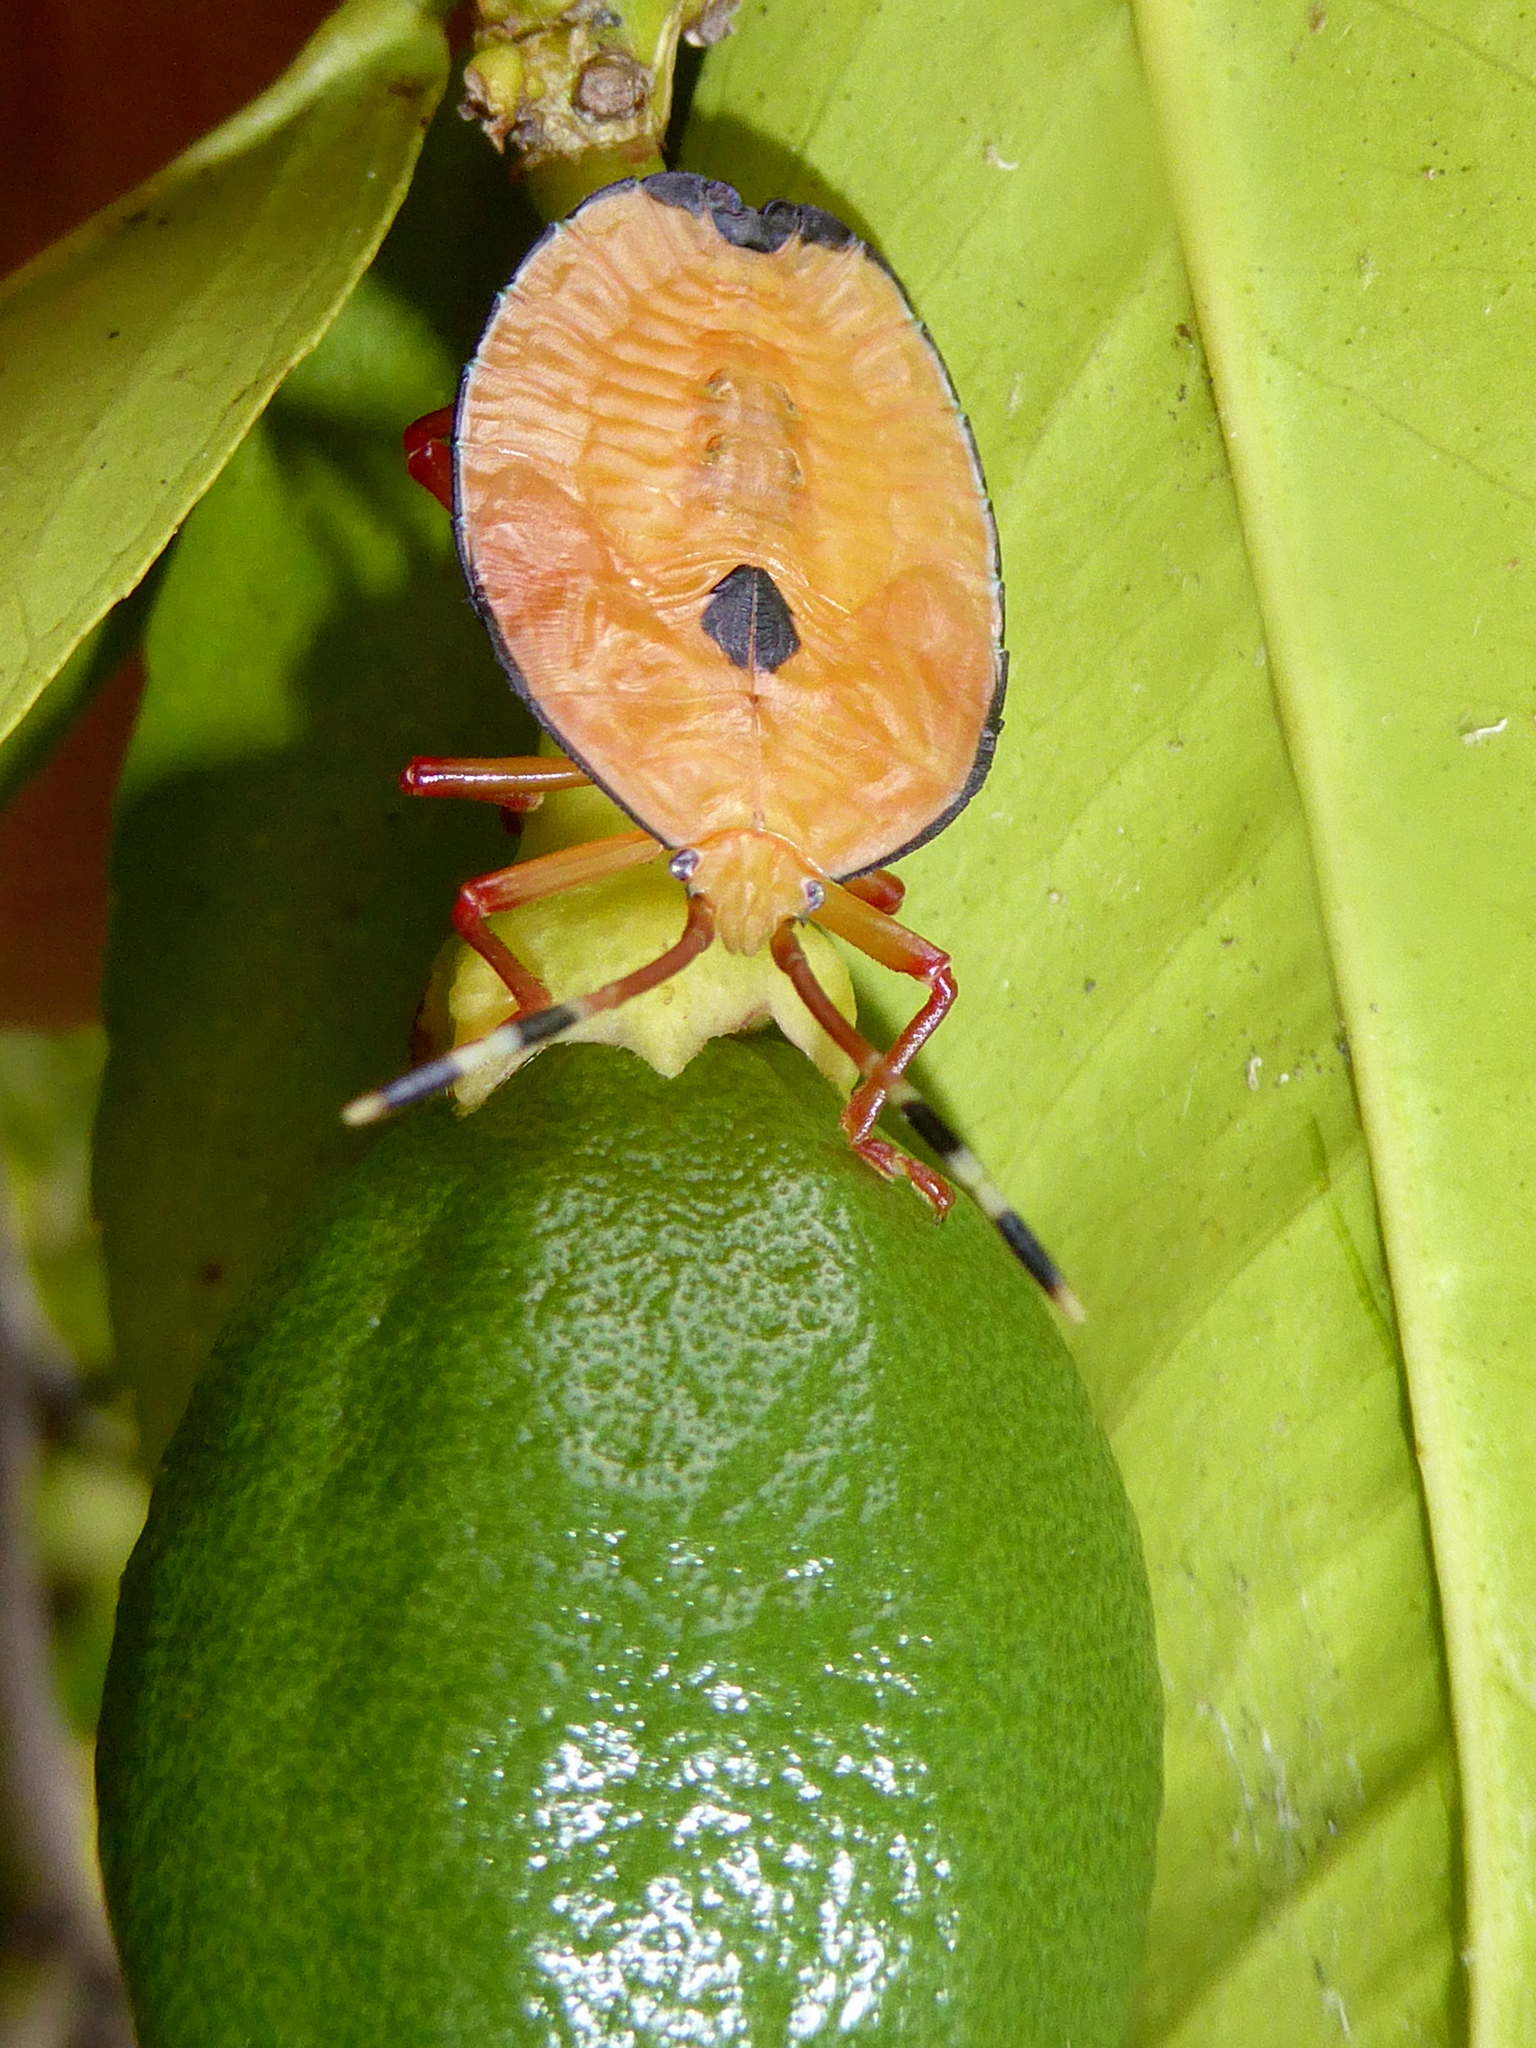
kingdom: Animalia
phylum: Arthropoda
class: Insecta
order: Hemiptera
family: Tessaratomidae
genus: Musgraveia
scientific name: Musgraveia sulciventris
